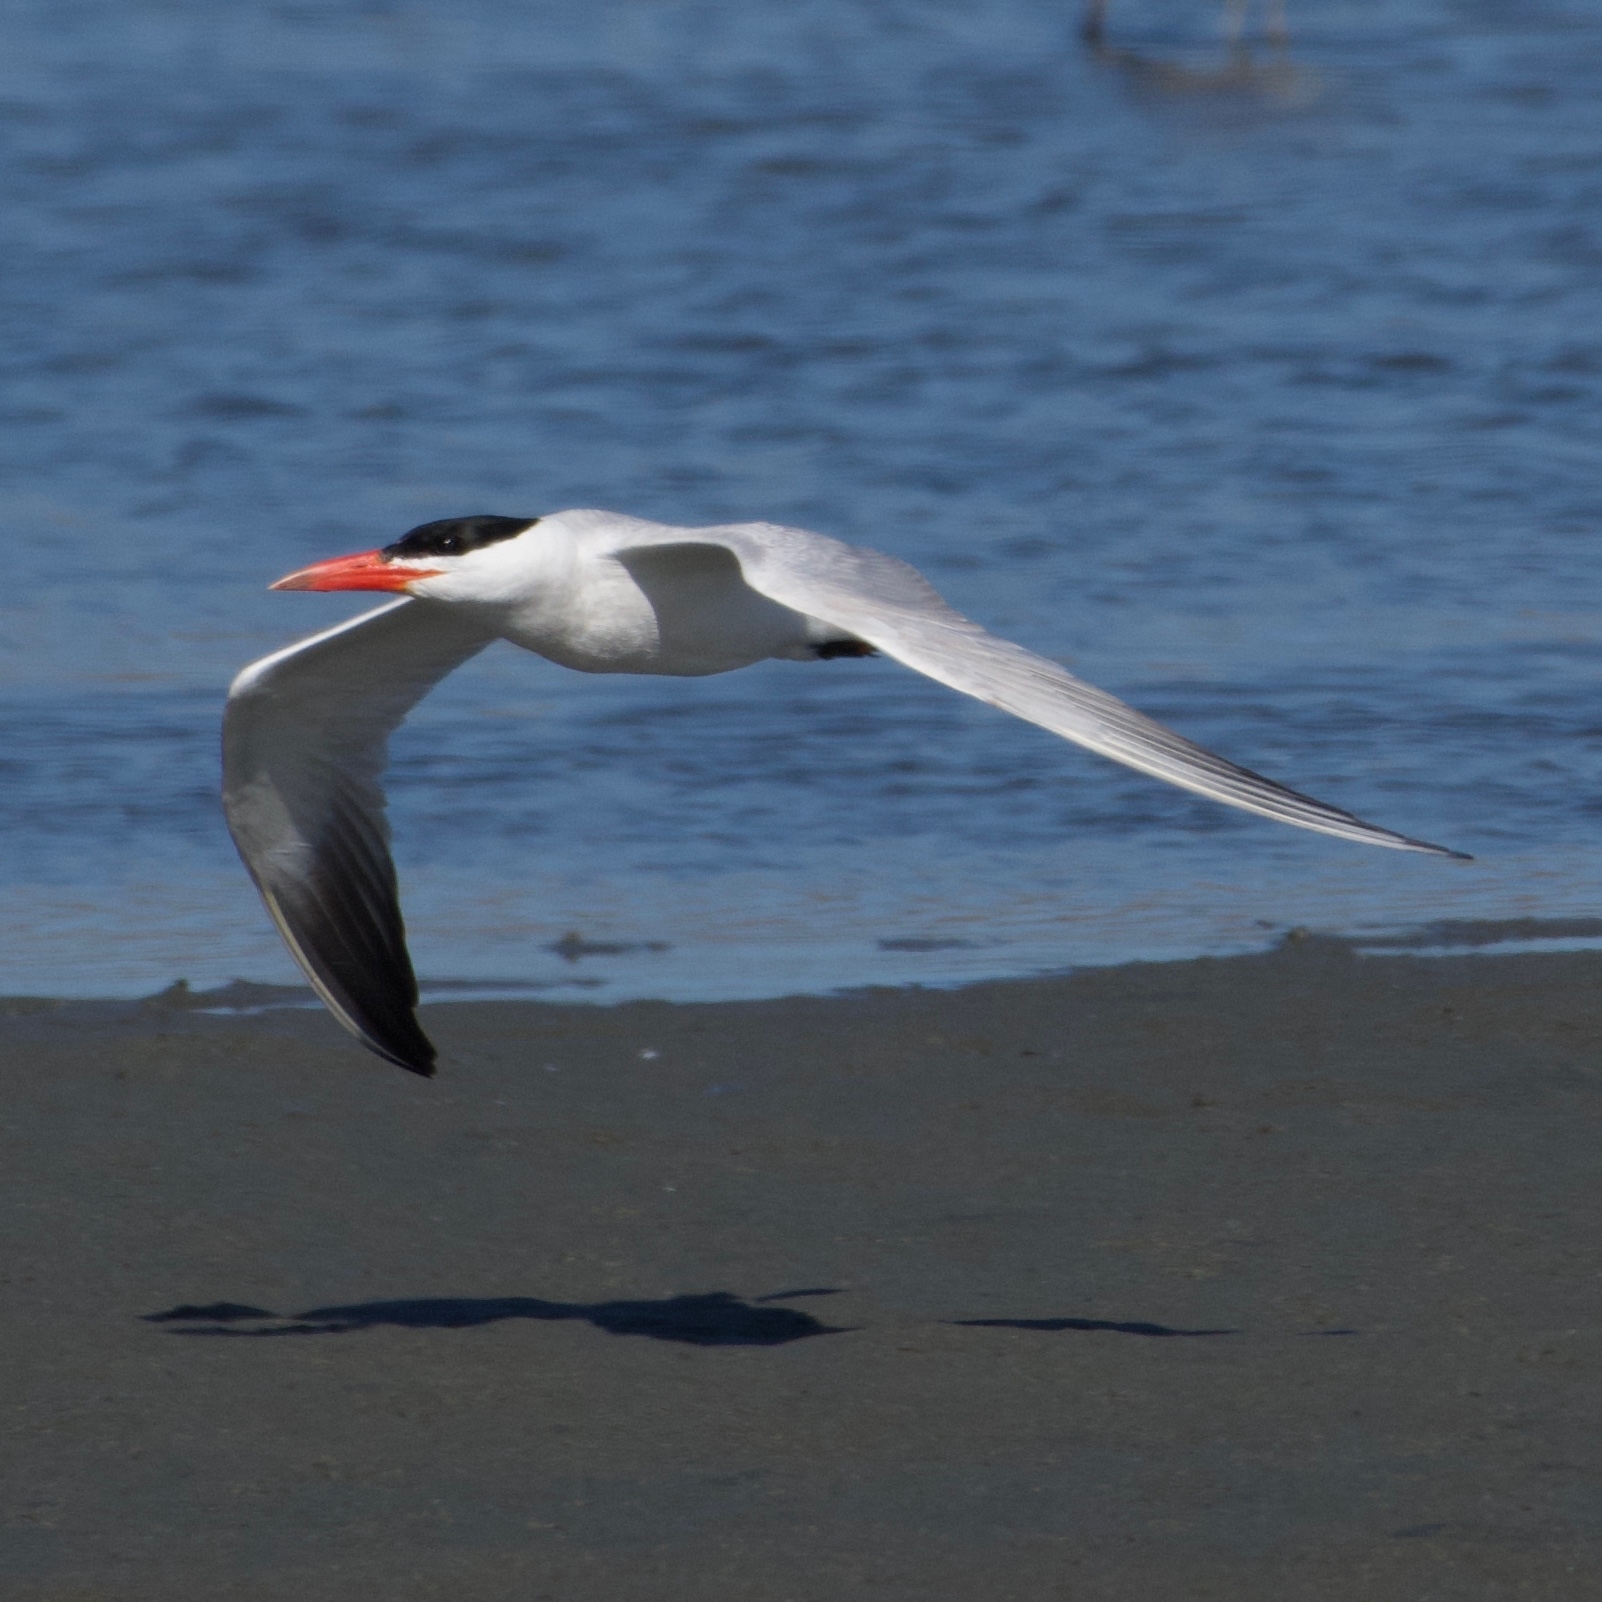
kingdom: Animalia
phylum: Chordata
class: Aves
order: Charadriiformes
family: Laridae
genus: Hydroprogne
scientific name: Hydroprogne caspia
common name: Caspian tern
